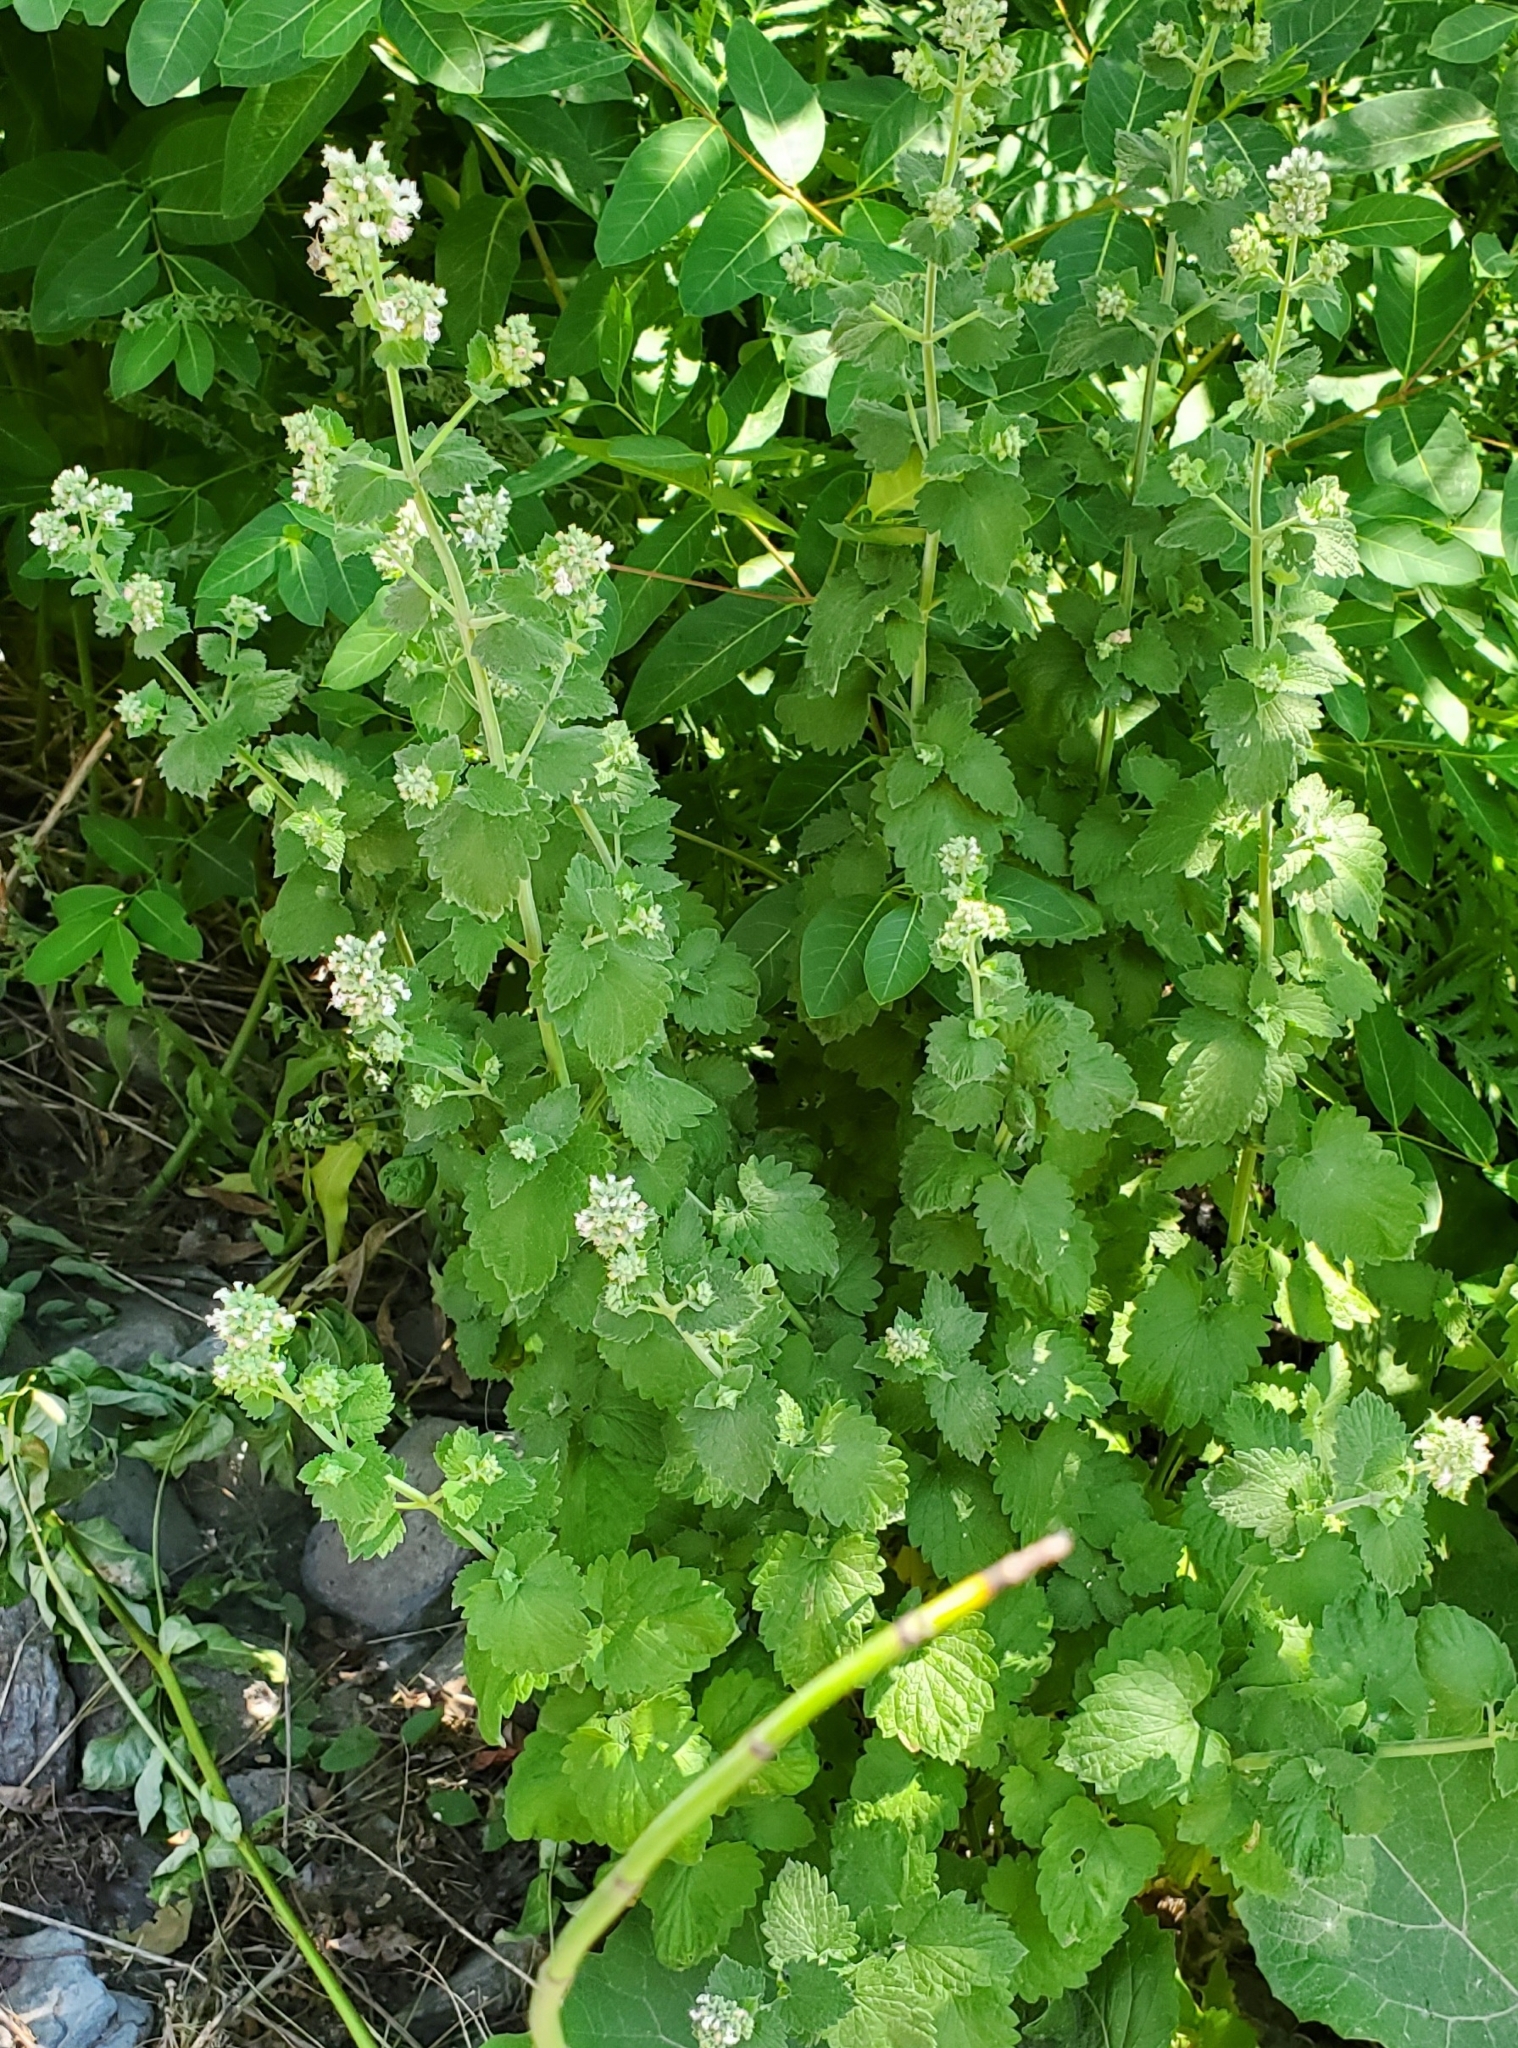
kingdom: Plantae
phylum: Tracheophyta
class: Magnoliopsida
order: Lamiales
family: Lamiaceae
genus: Nepeta
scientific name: Nepeta cataria
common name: Catnip
